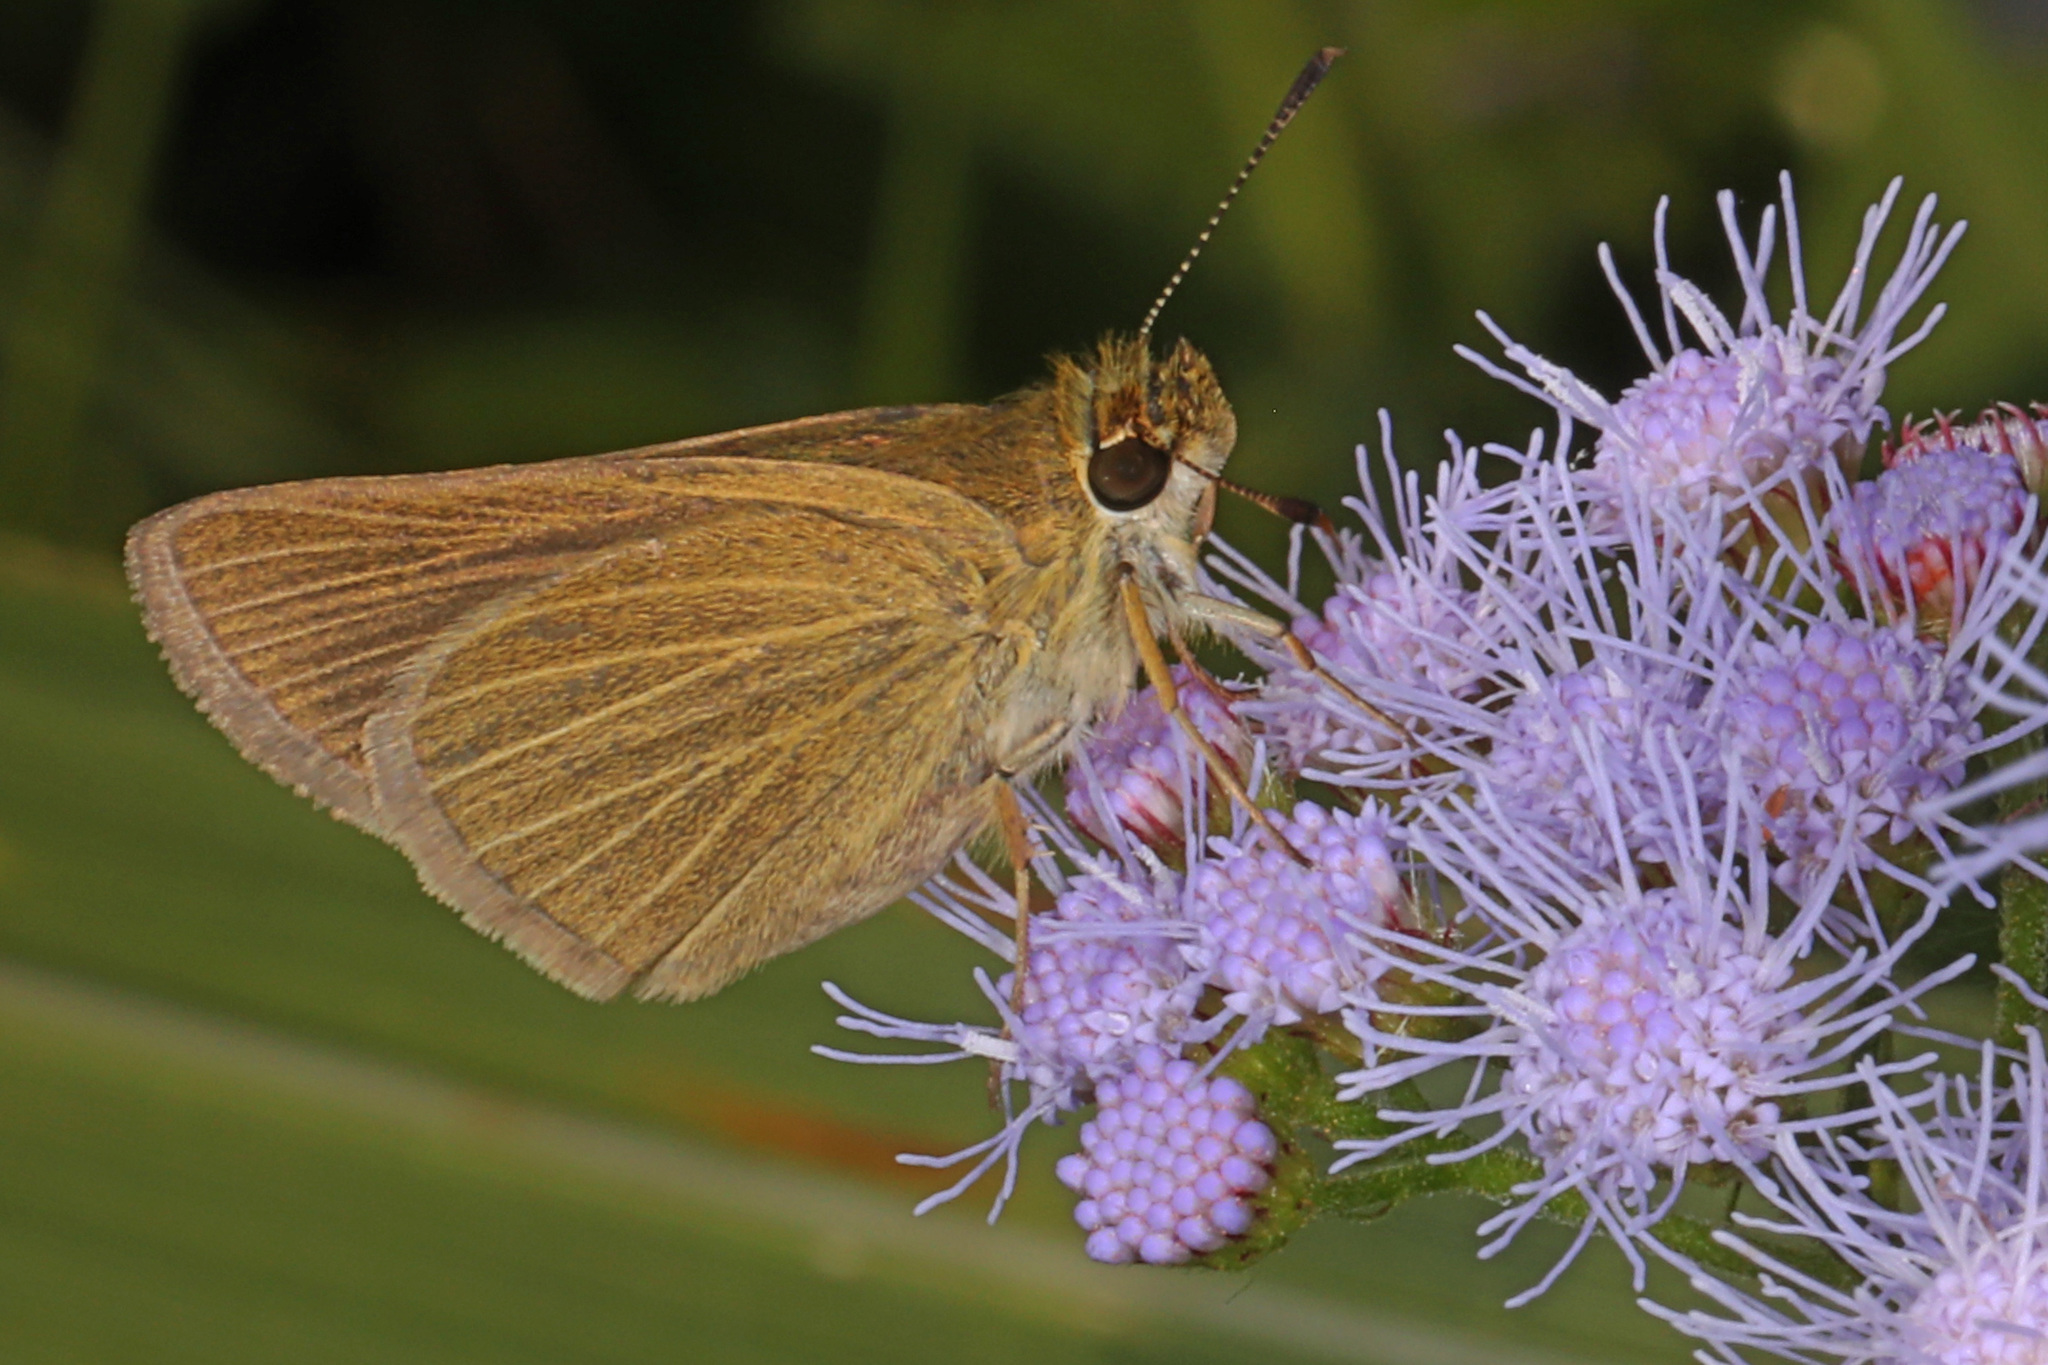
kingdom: Animalia
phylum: Arthropoda
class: Insecta
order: Lepidoptera
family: Hesperiidae
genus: Nastra
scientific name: Nastra lherminier
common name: Swarthy skipper
